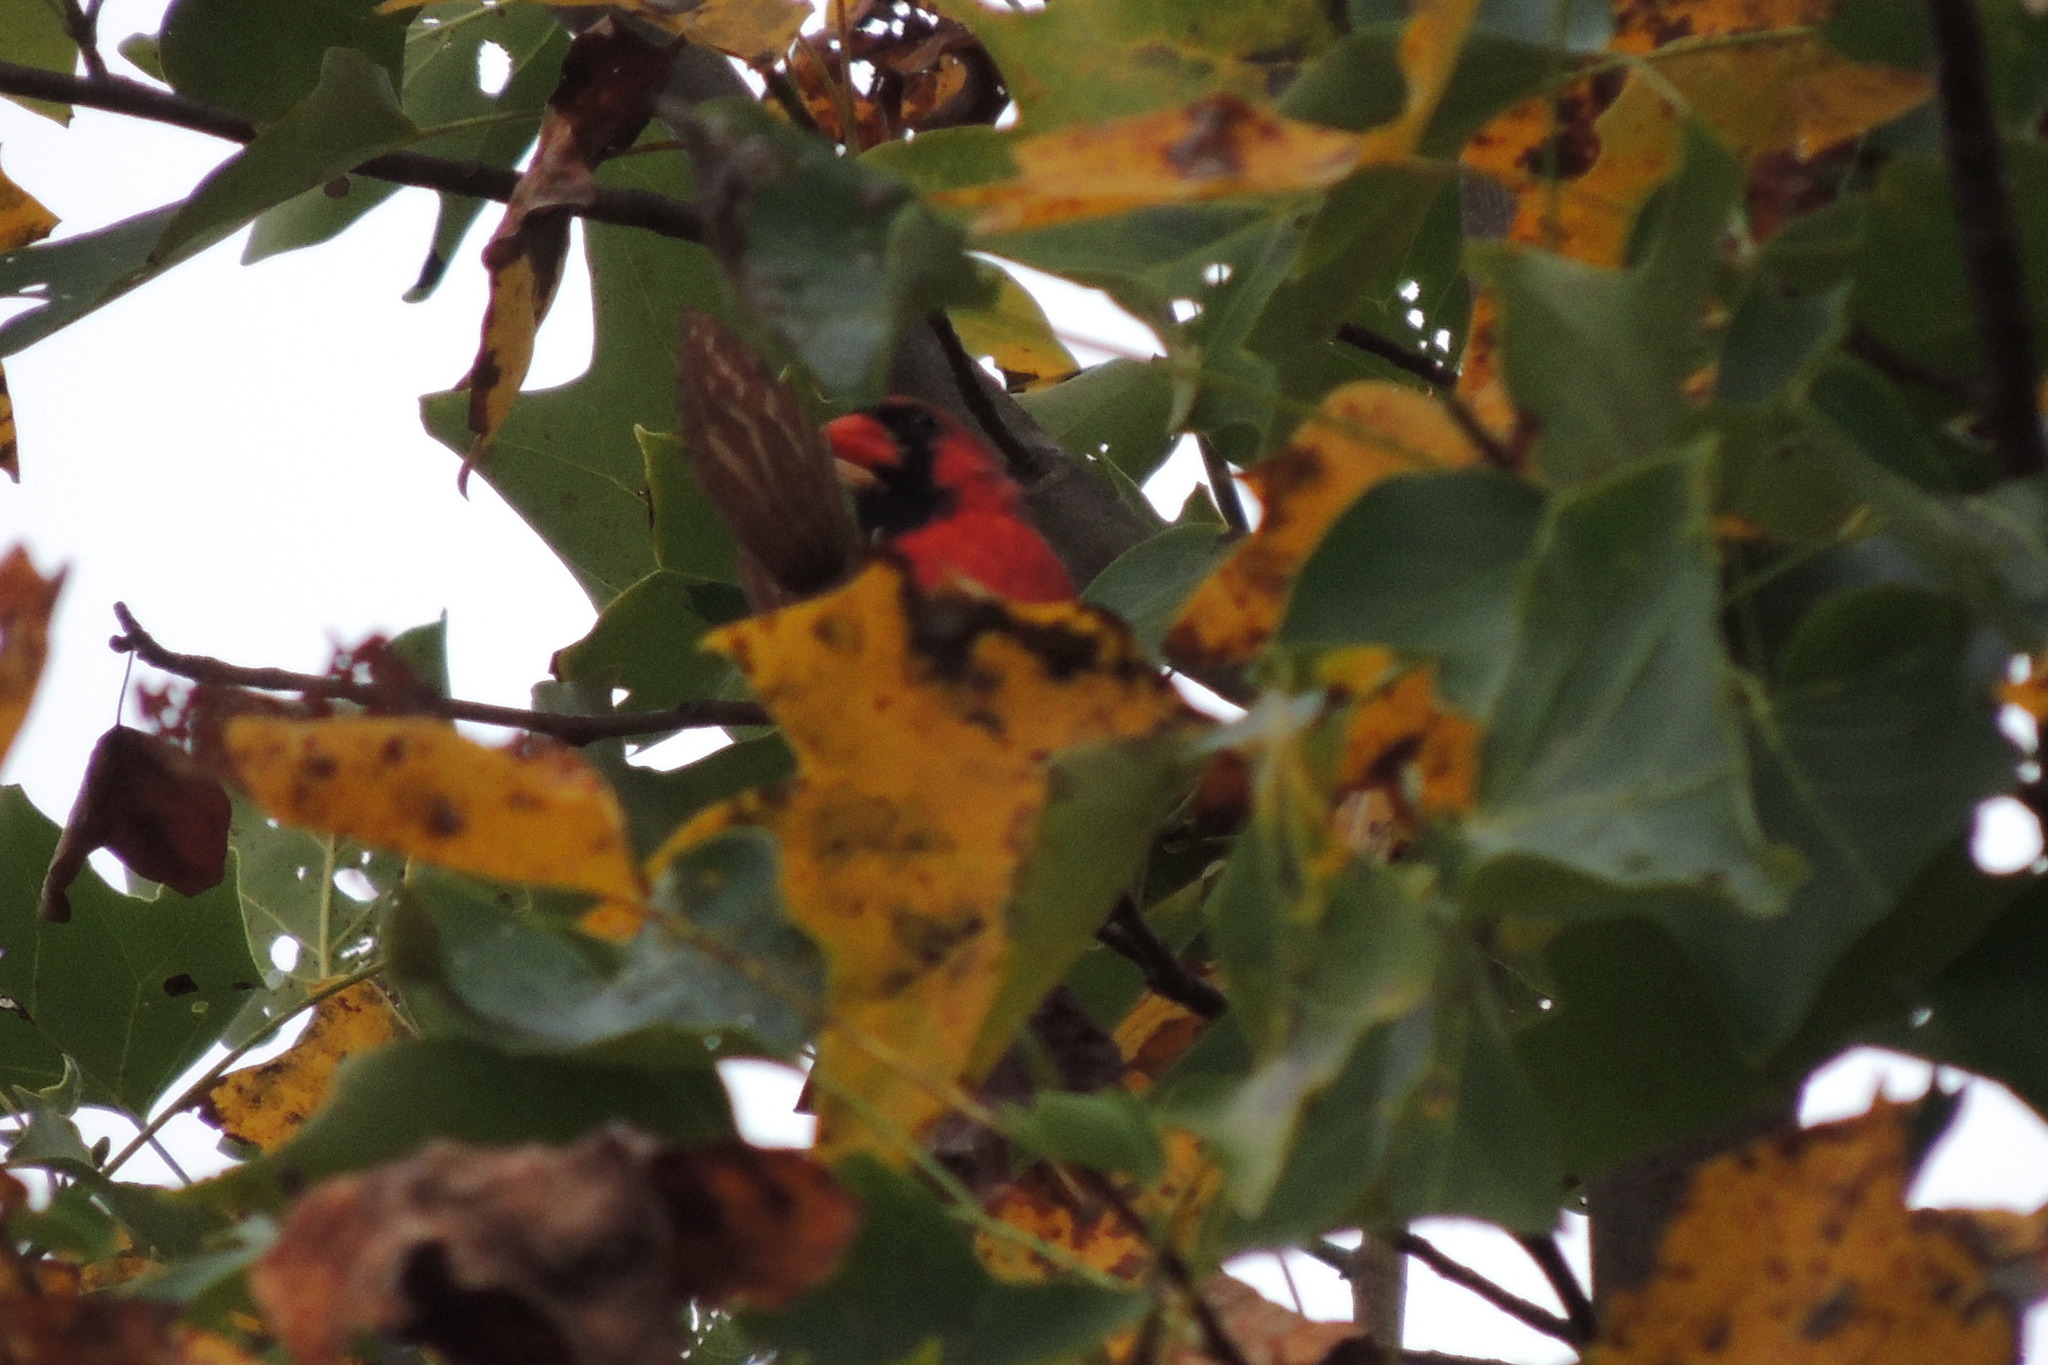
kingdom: Animalia
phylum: Chordata
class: Aves
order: Passeriformes
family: Cardinalidae
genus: Cardinalis
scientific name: Cardinalis cardinalis
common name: Northern cardinal
